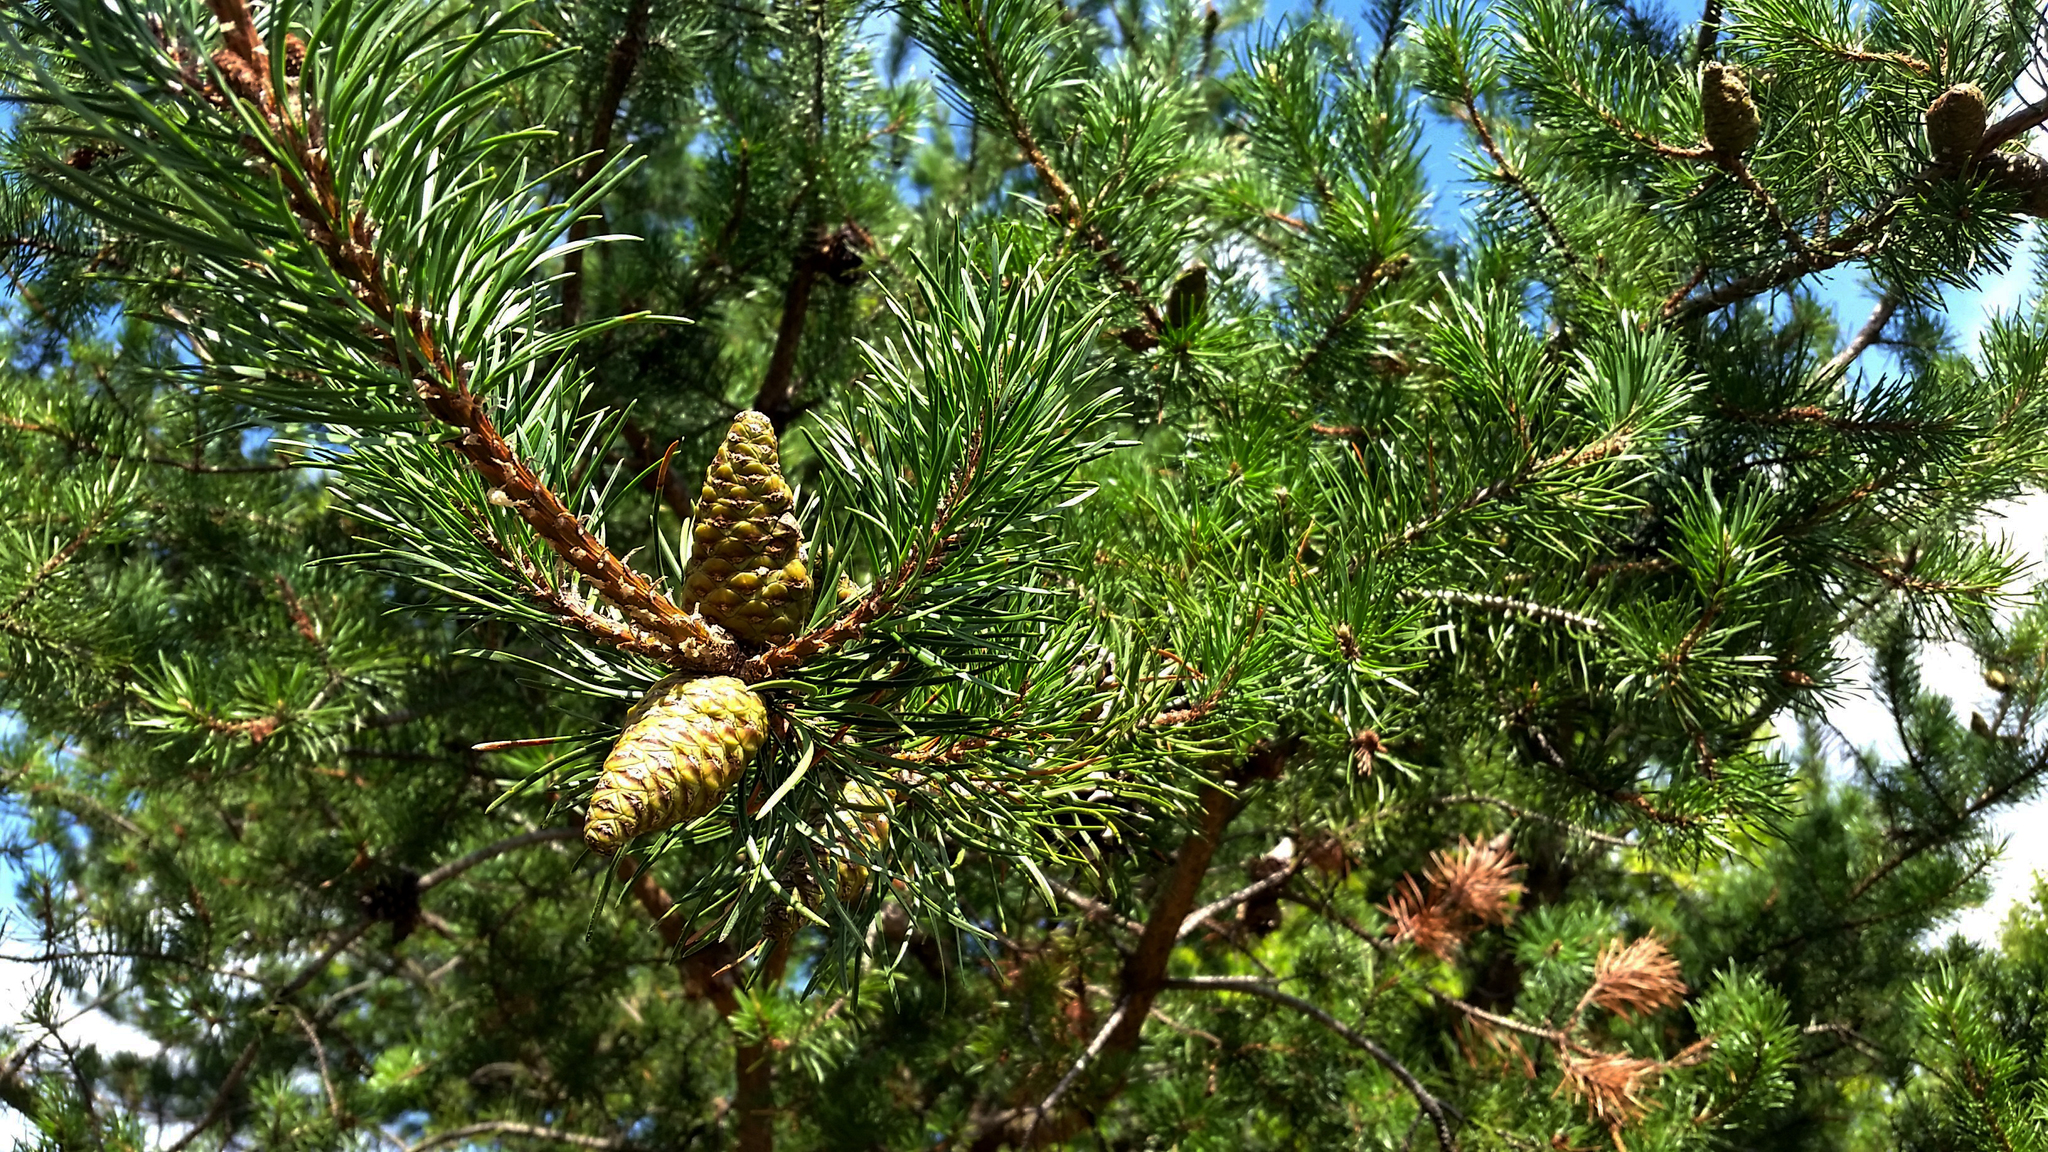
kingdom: Plantae
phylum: Tracheophyta
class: Pinopsida
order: Pinales
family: Pinaceae
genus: Pinus
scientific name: Pinus banksiana
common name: Jack pine
